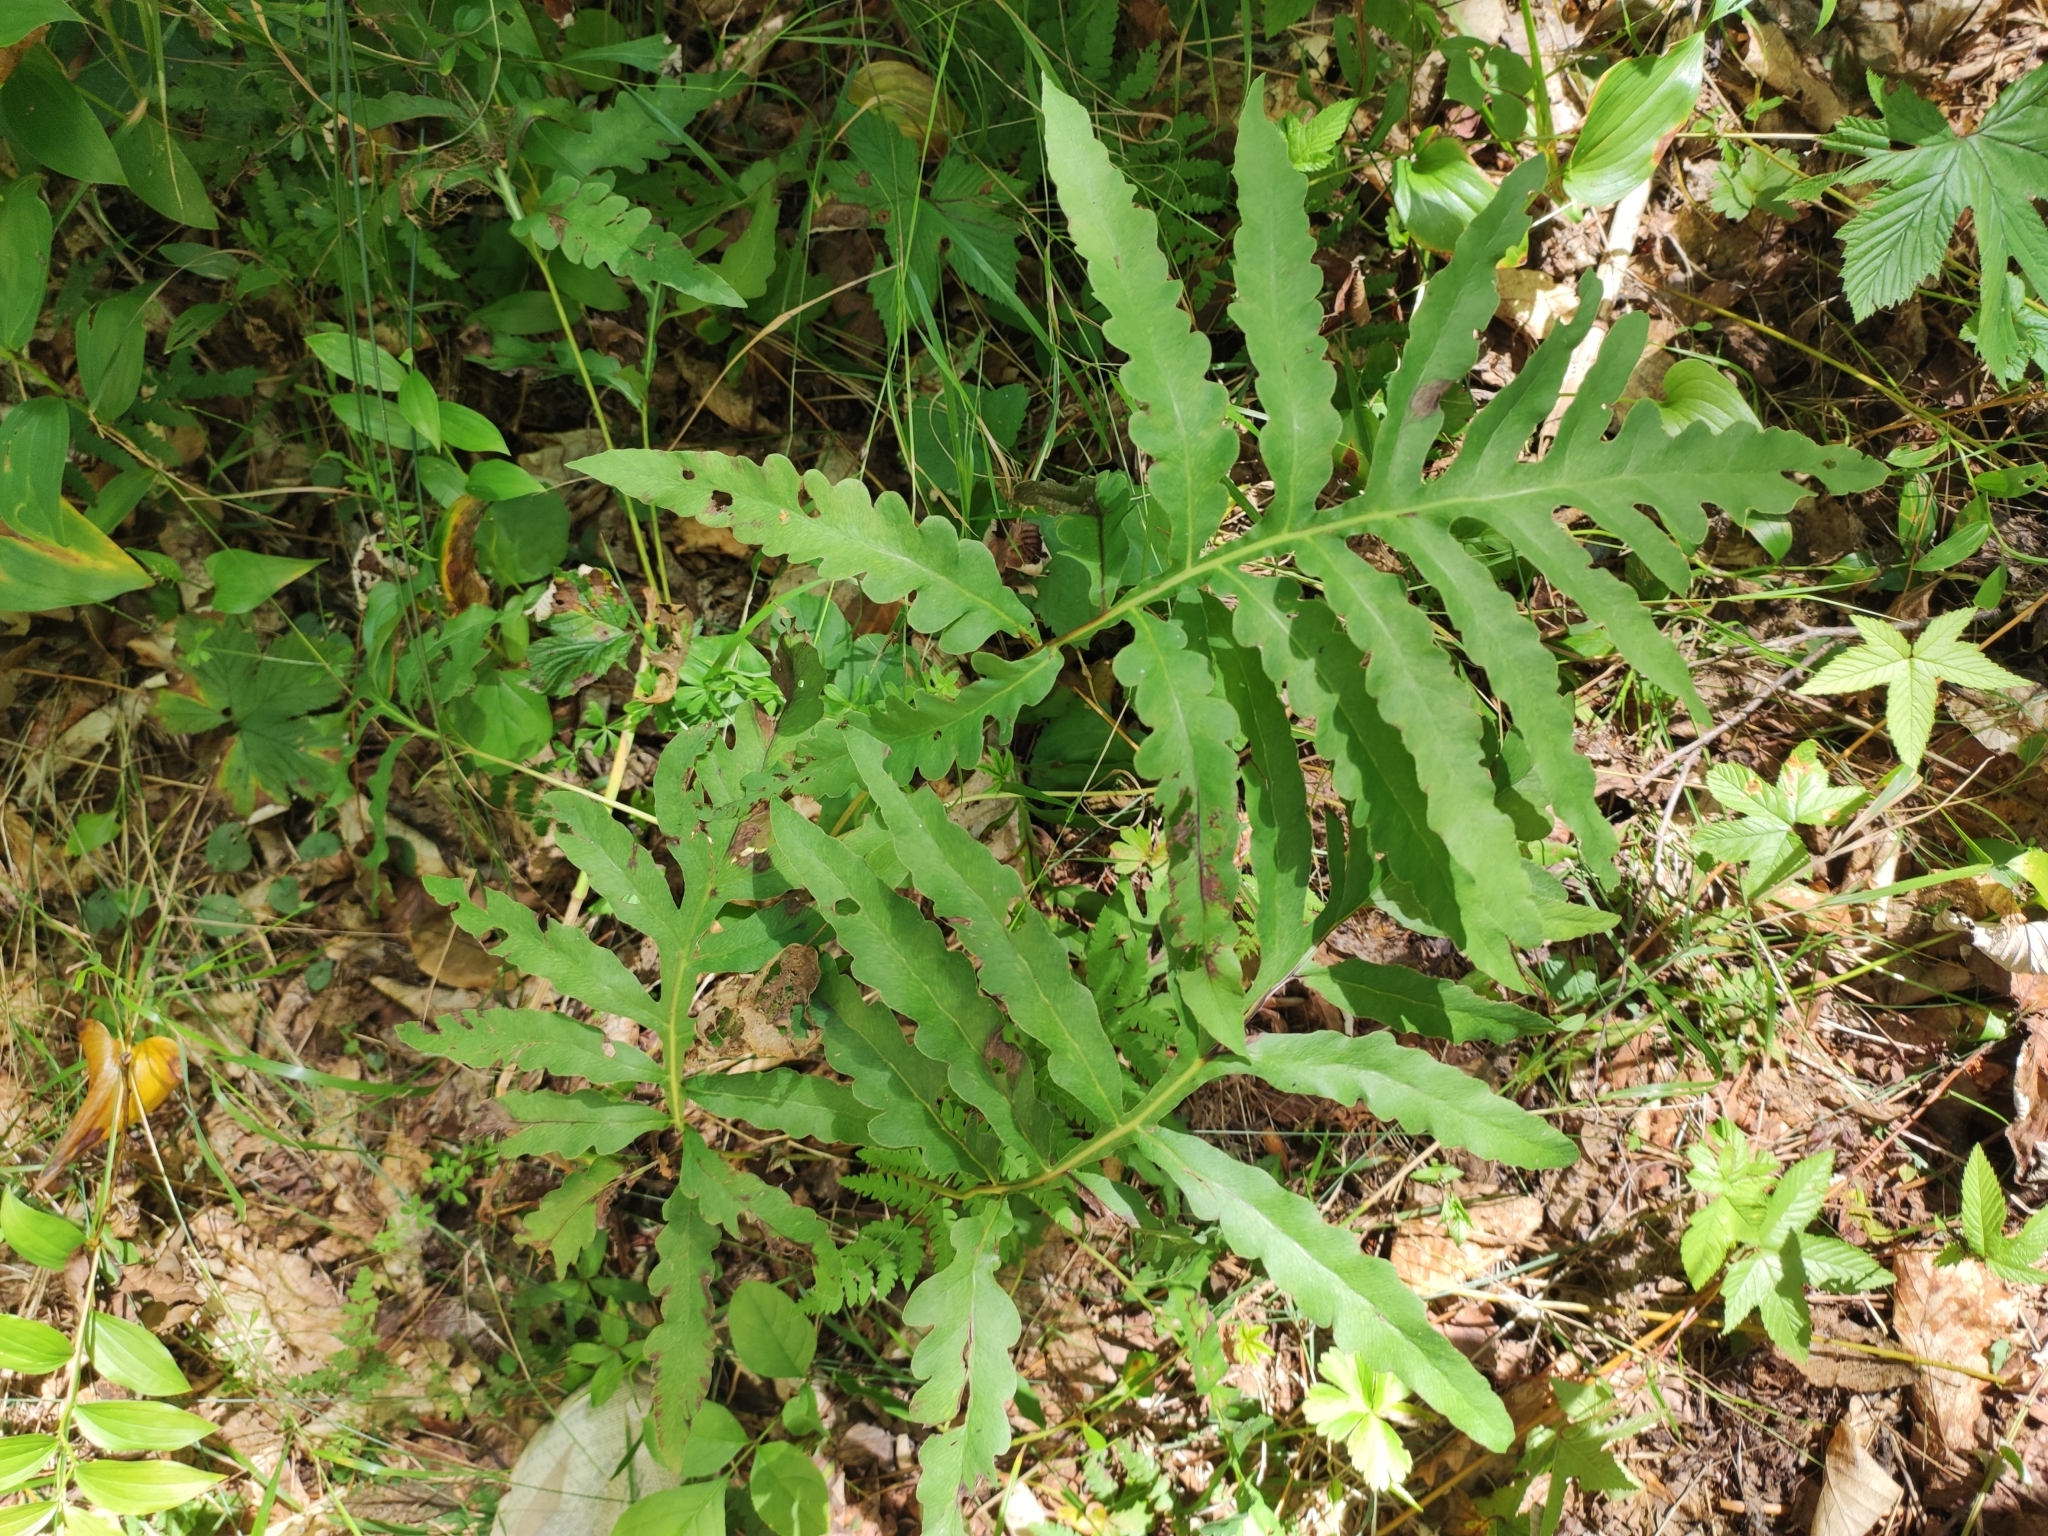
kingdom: Plantae
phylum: Tracheophyta
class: Polypodiopsida
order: Polypodiales
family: Onocleaceae
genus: Onoclea
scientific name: Onoclea sensibilis
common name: Sensitive fern
